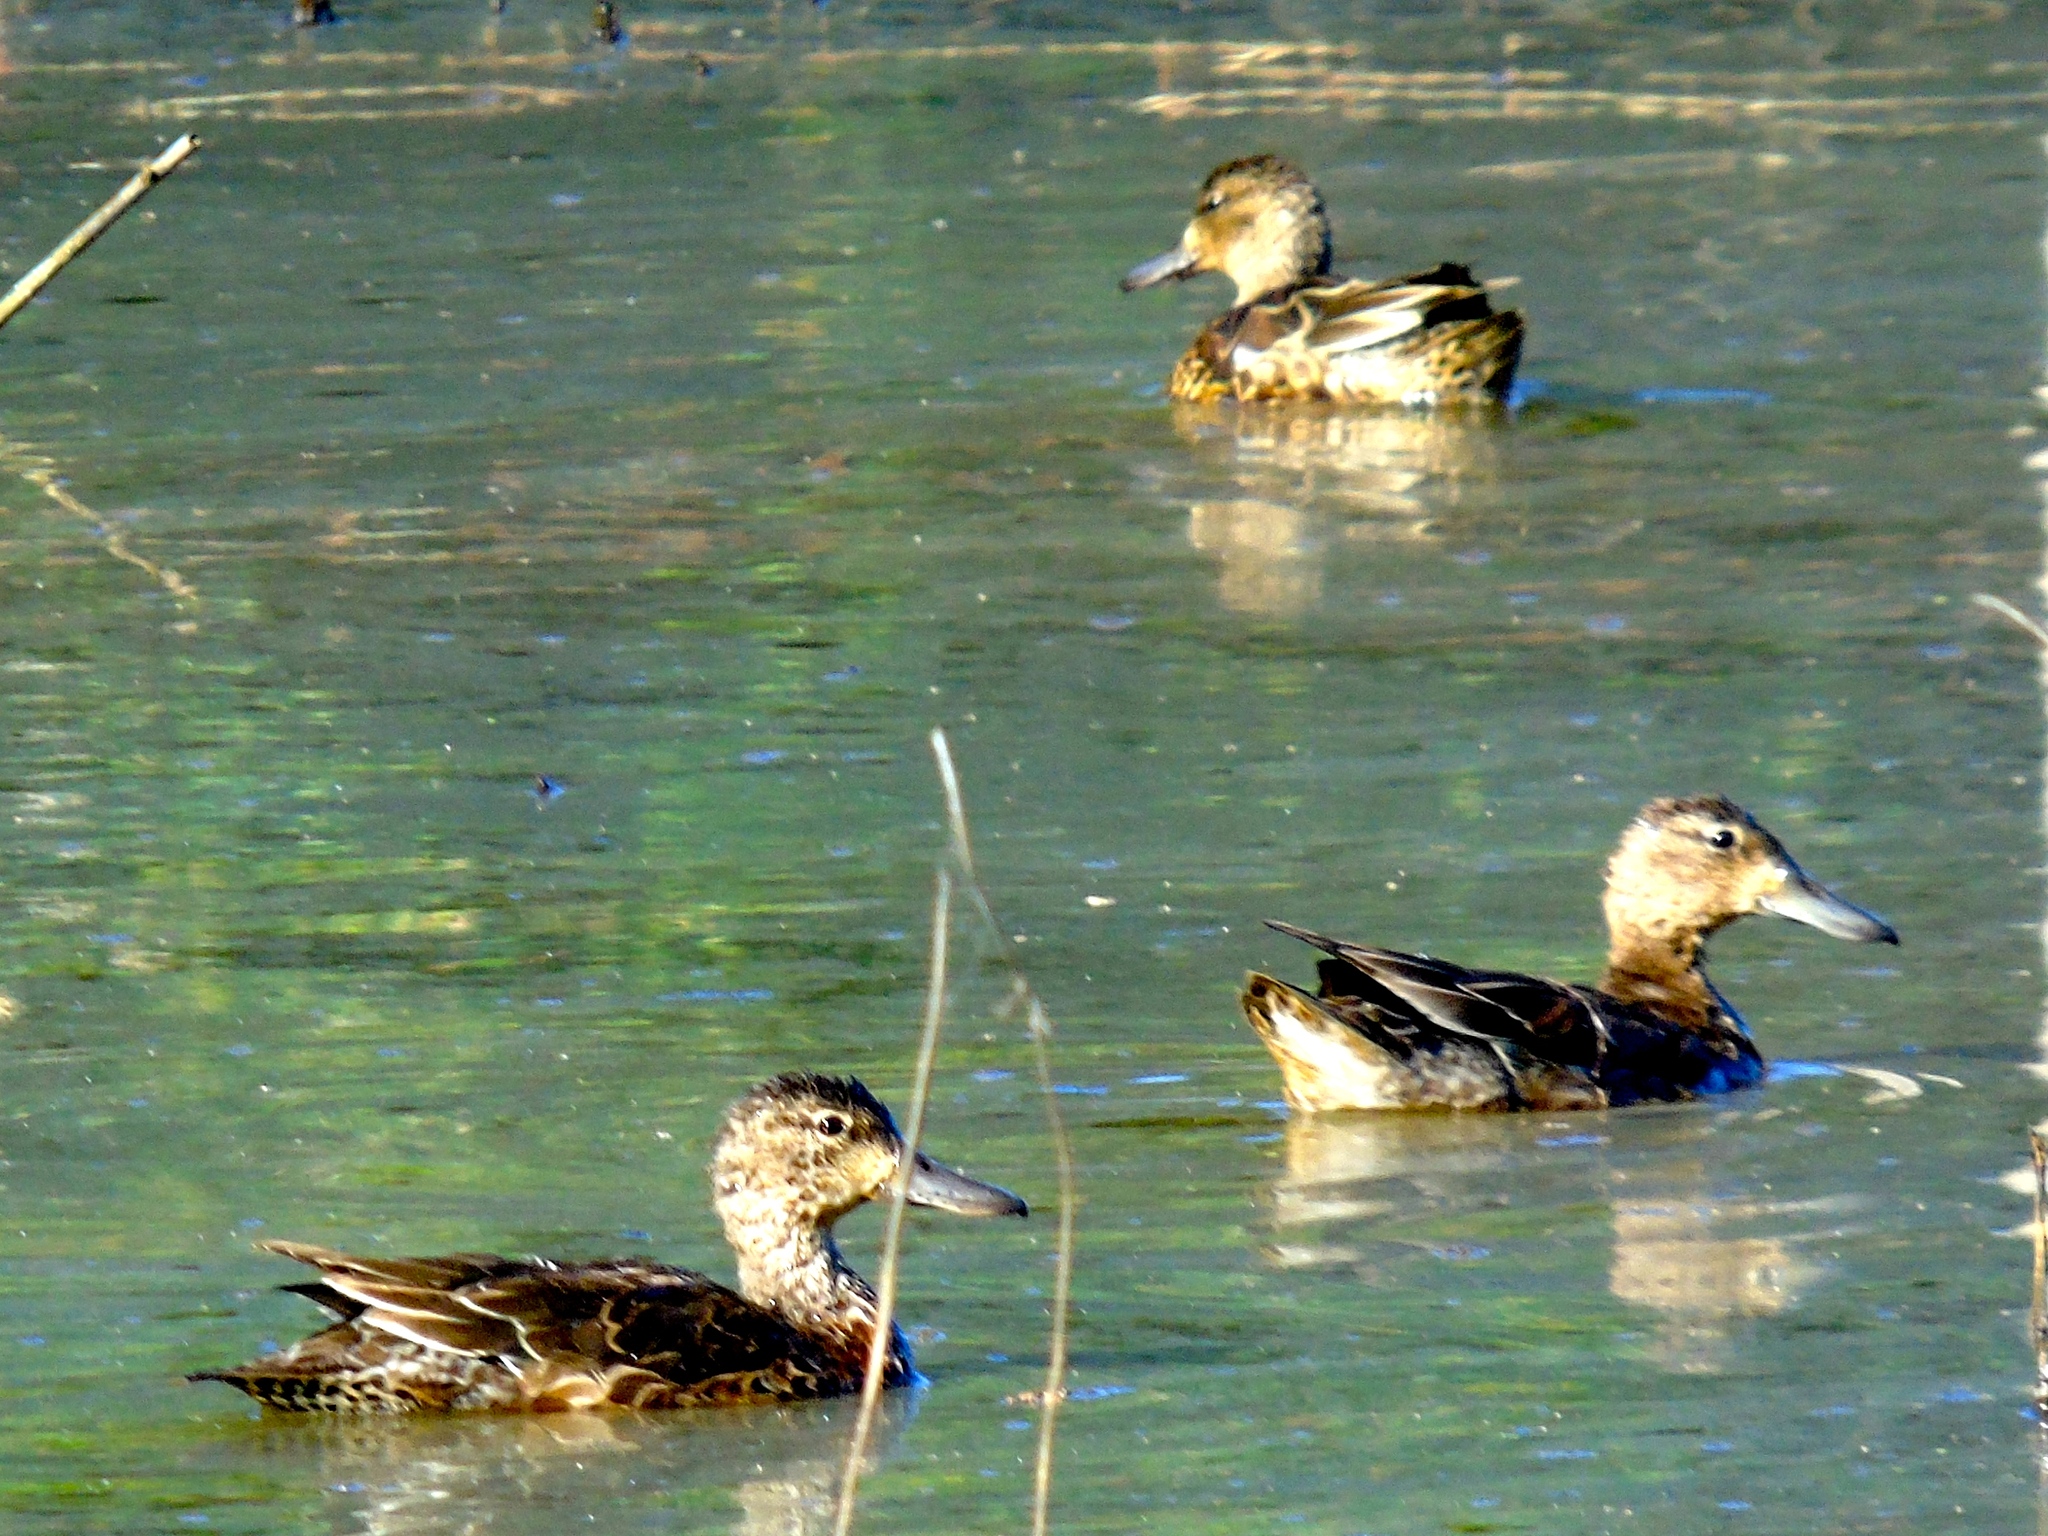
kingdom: Animalia
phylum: Chordata
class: Aves
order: Anseriformes
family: Anatidae
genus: Spatula
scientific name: Spatula cyanoptera
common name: Cinnamon teal
